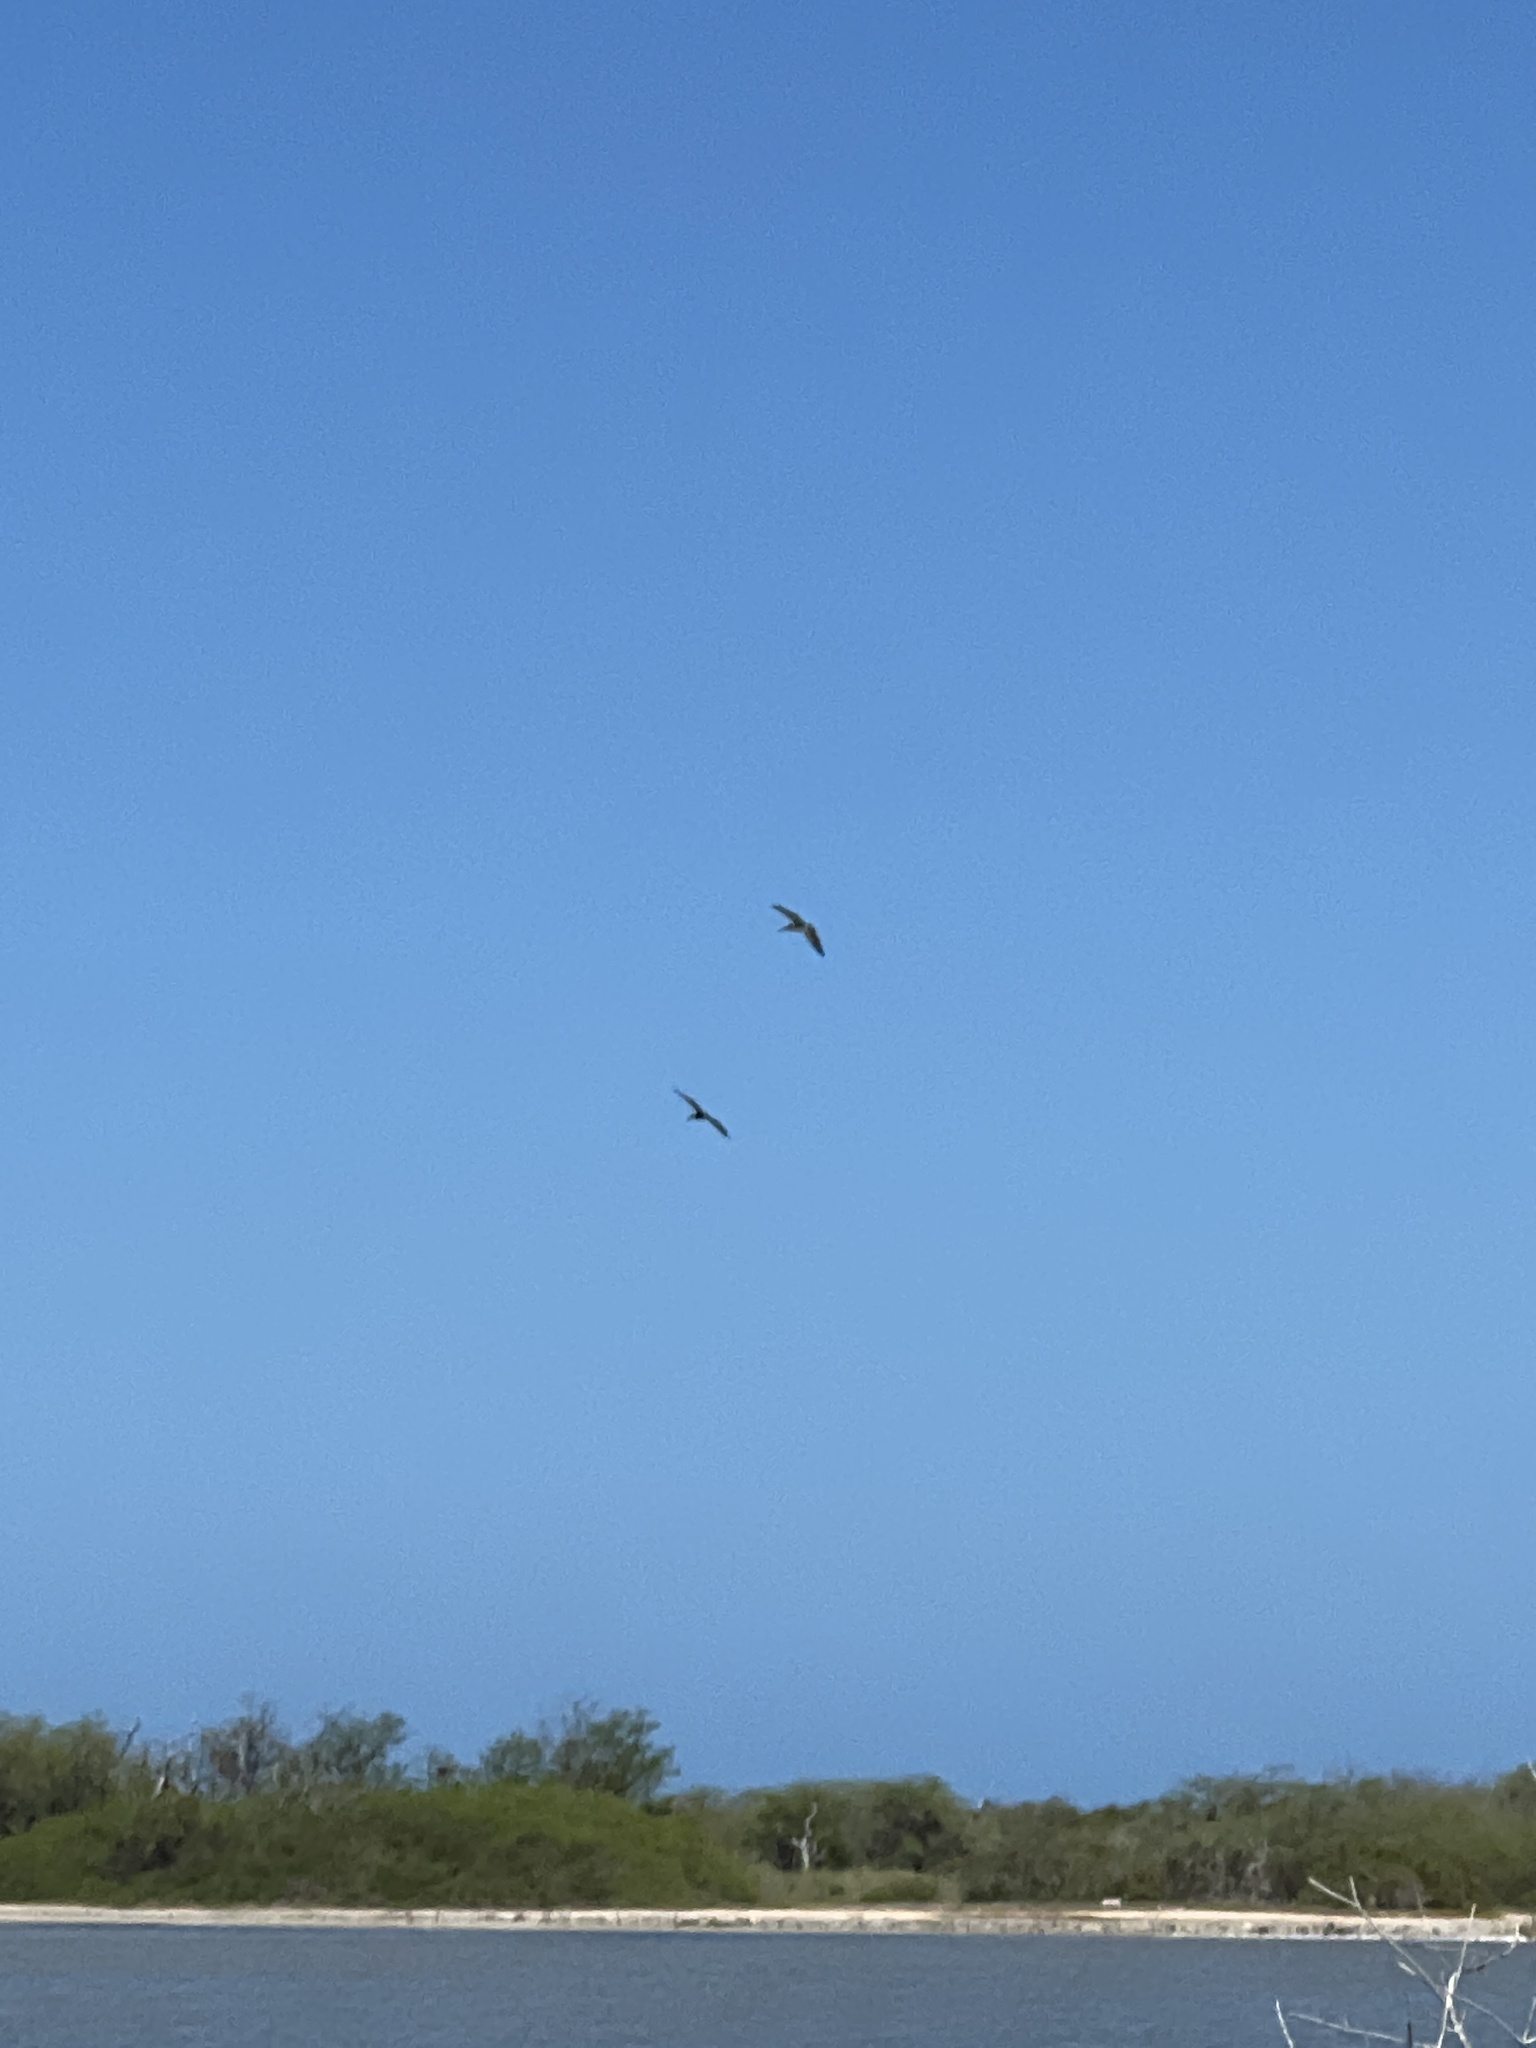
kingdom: Animalia
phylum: Chordata
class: Aves
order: Pelecaniformes
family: Pelecanidae
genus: Pelecanus
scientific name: Pelecanus occidentalis
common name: Brown pelican
